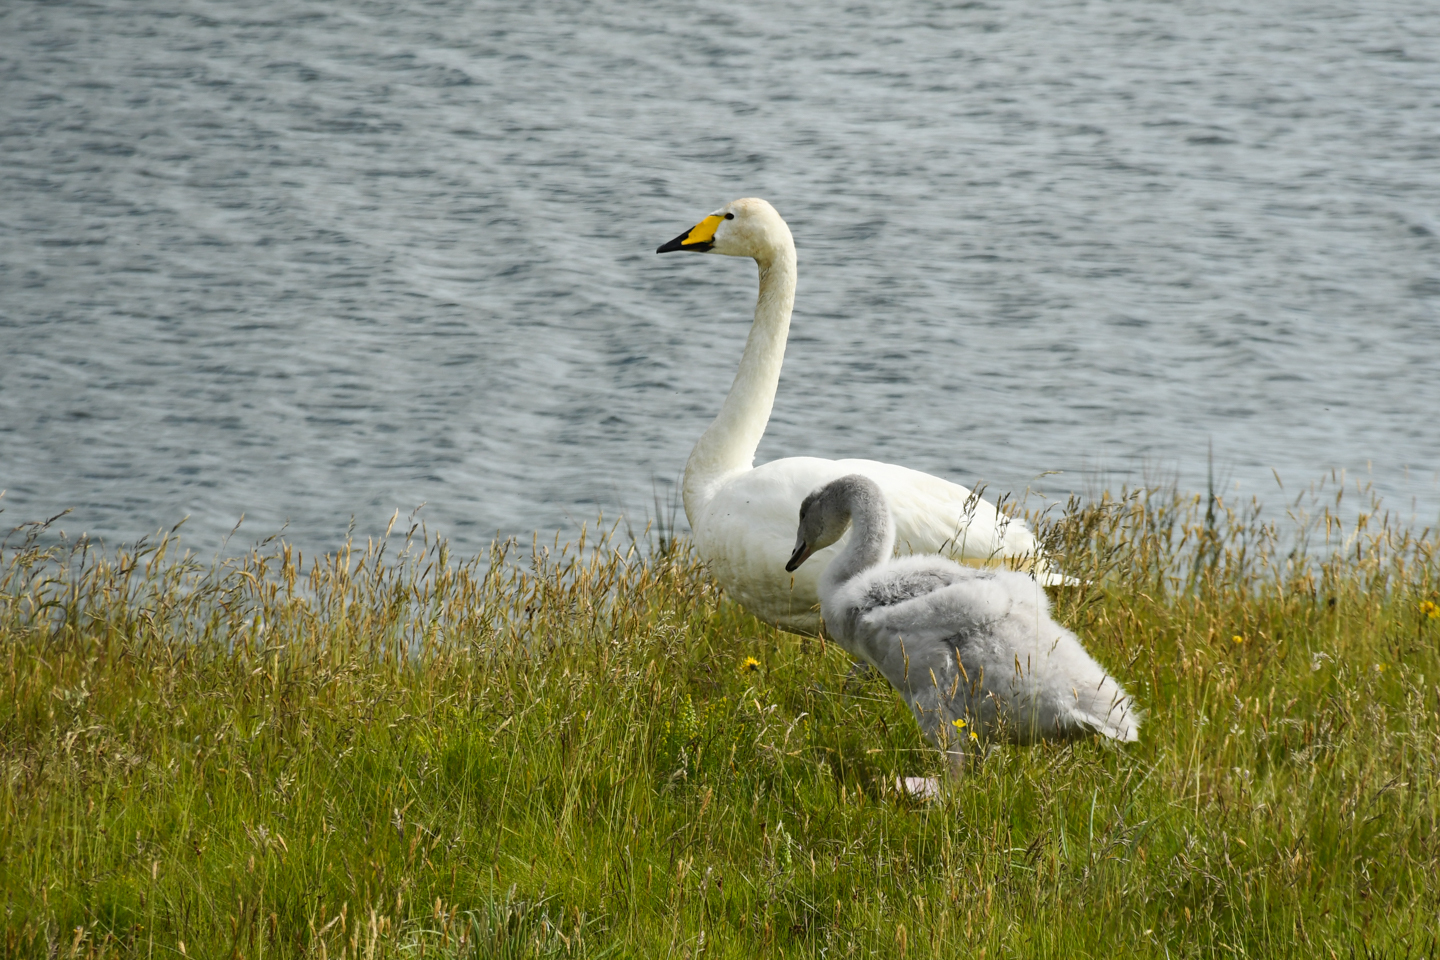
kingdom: Animalia
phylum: Chordata
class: Aves
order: Anseriformes
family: Anatidae
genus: Cygnus
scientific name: Cygnus cygnus
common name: Whooper swan
